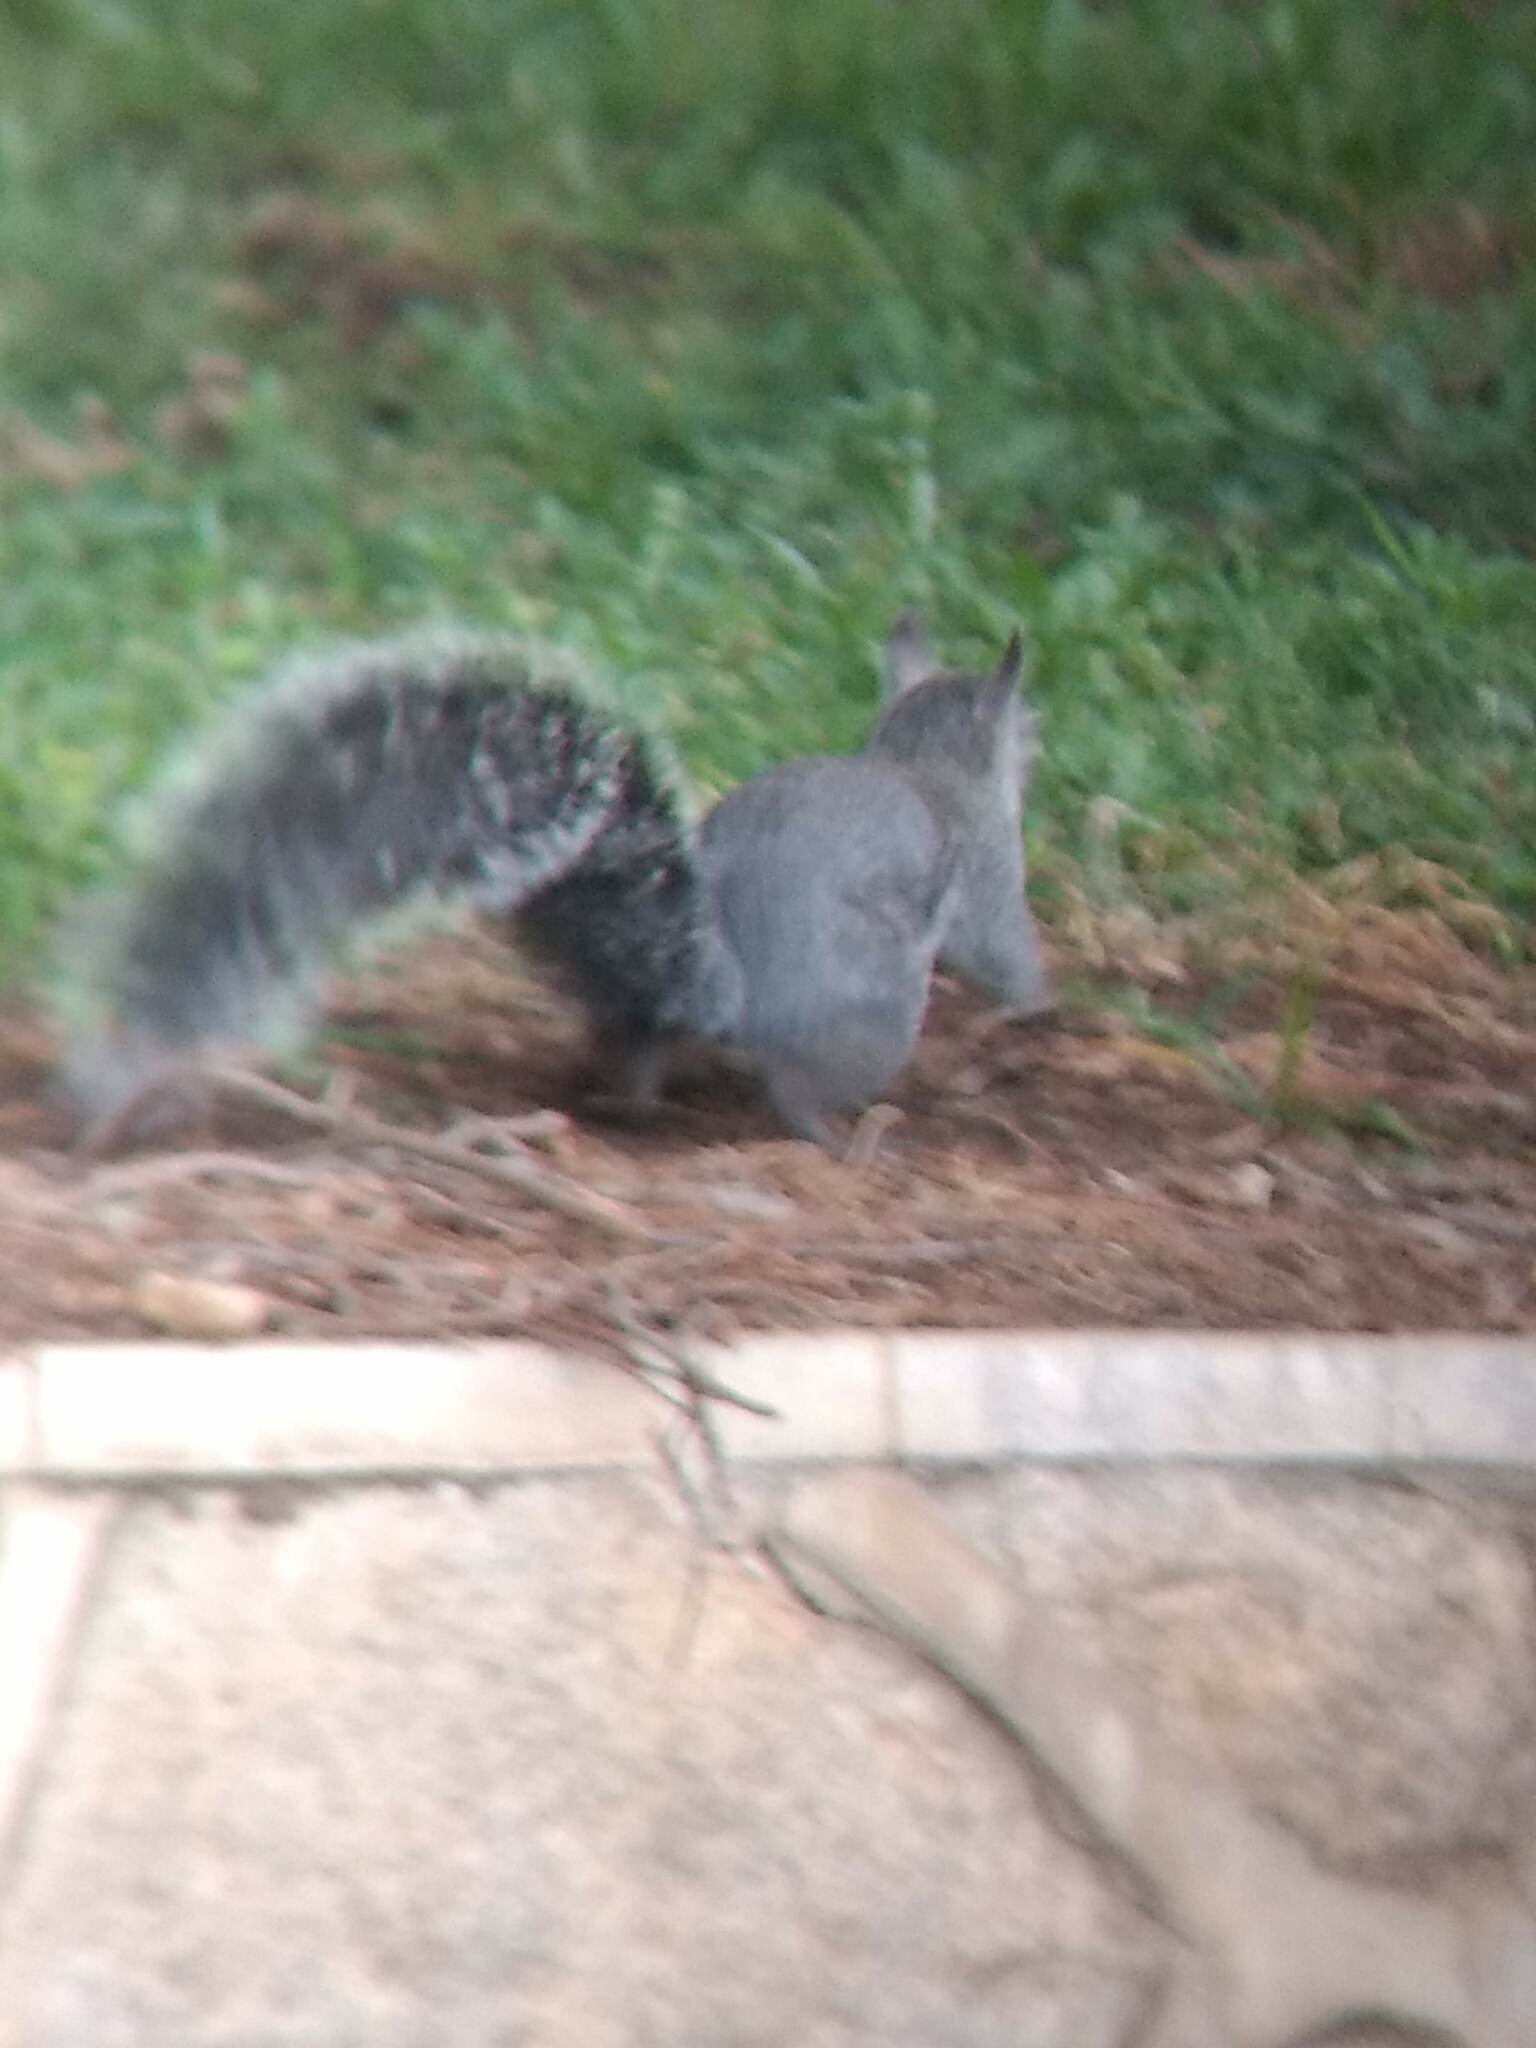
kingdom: Animalia
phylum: Chordata
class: Mammalia
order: Rodentia
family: Sciuridae
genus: Sciurus
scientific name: Sciurus griseus
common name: Western gray squirrel
